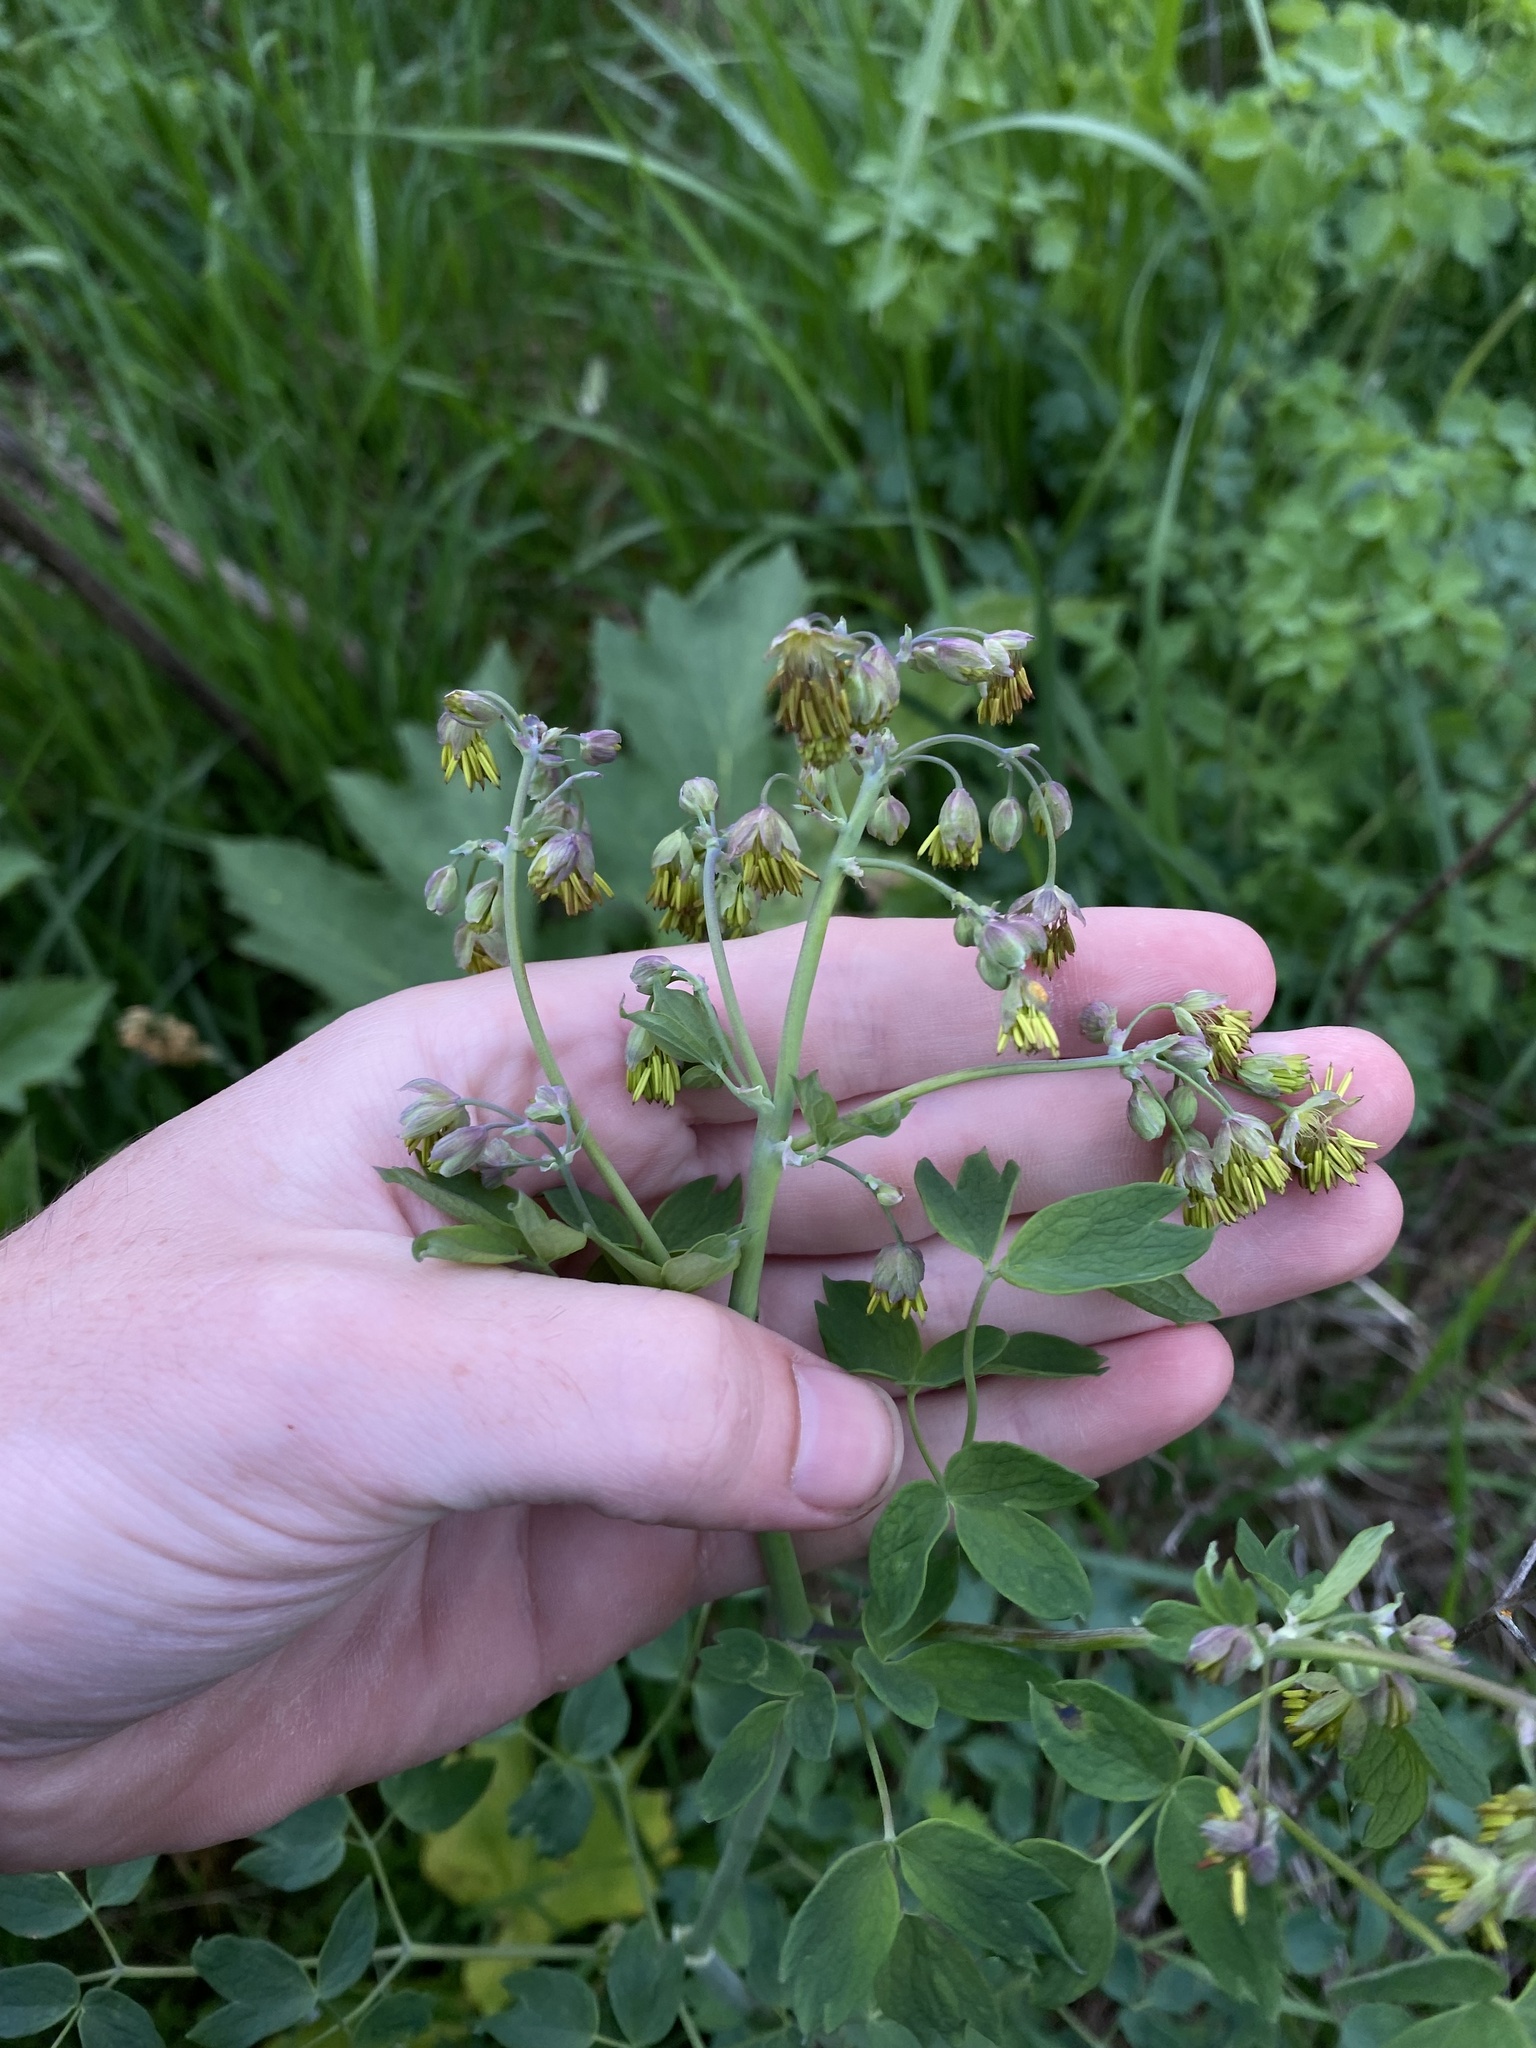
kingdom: Plantae
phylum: Tracheophyta
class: Magnoliopsida
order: Ranunculales
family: Ranunculaceae
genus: Thalictrum
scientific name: Thalictrum fendleri
